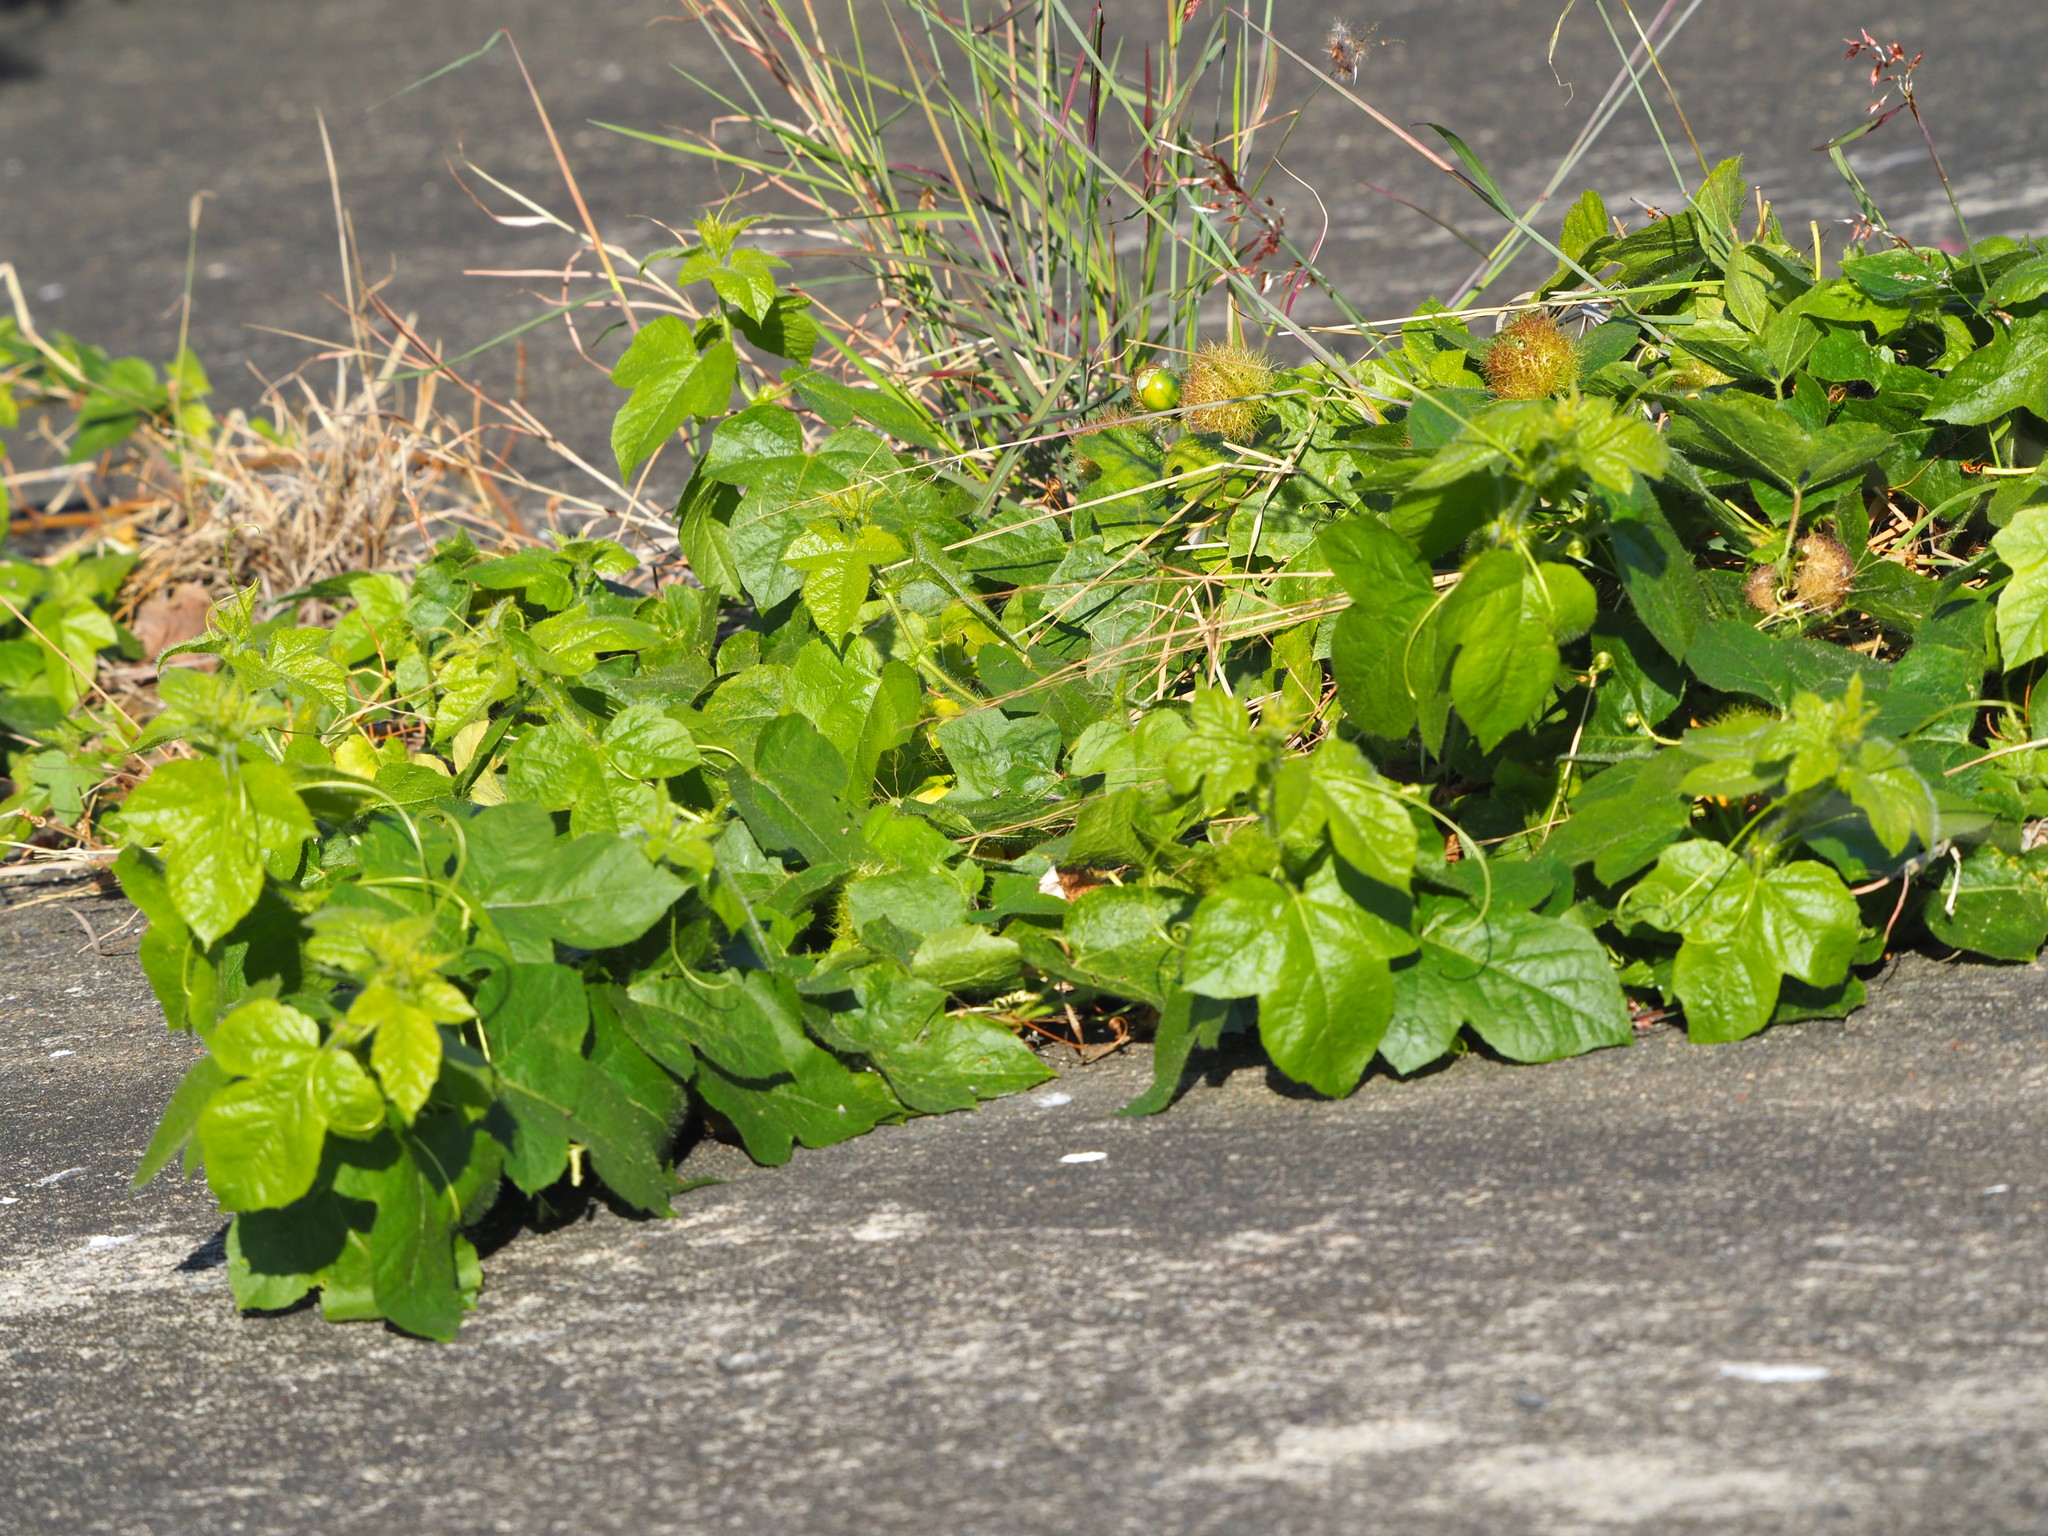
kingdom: Plantae
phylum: Tracheophyta
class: Magnoliopsida
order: Malpighiales
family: Passifloraceae
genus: Passiflora
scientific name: Passiflora vesicaria
